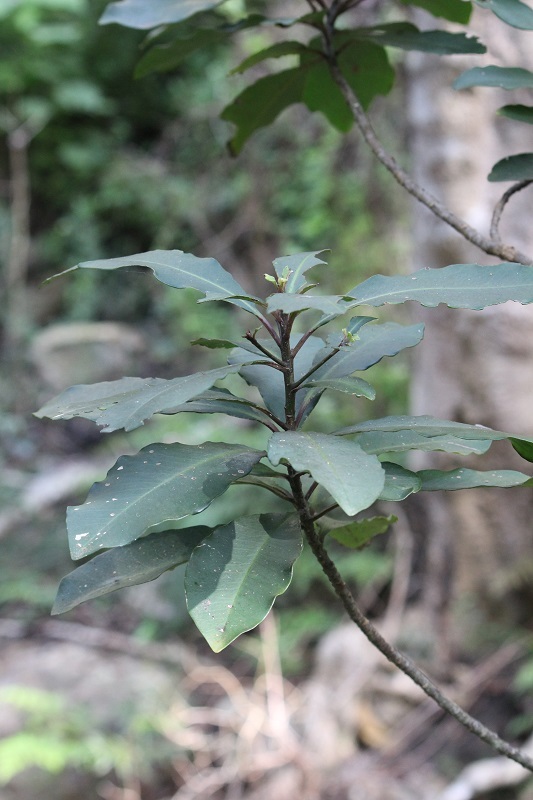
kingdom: Plantae
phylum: Tracheophyta
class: Magnoliopsida
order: Ericales
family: Primulaceae
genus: Myrsine
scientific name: Myrsine melanophloeos
